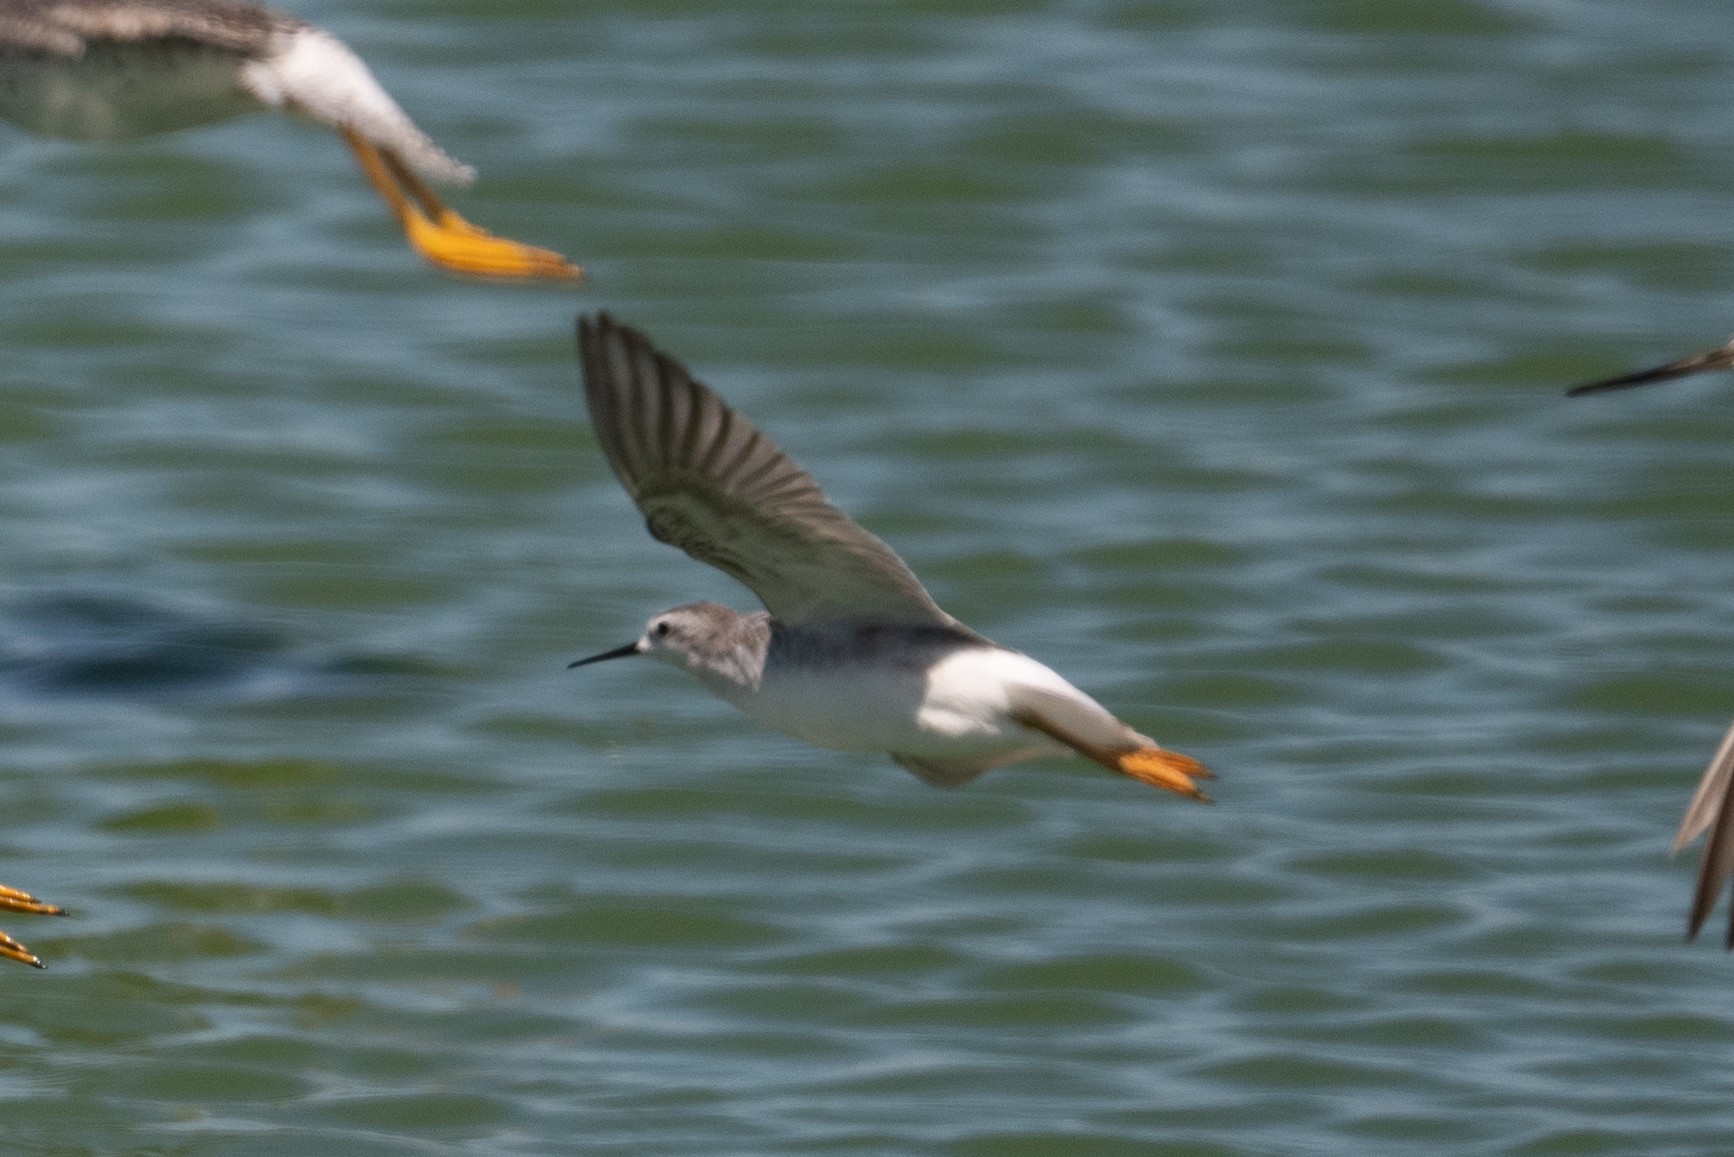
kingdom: Animalia
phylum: Chordata
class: Aves
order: Charadriiformes
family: Scolopacidae
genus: Phalaropus
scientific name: Phalaropus tricolor
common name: Wilson's phalarope
